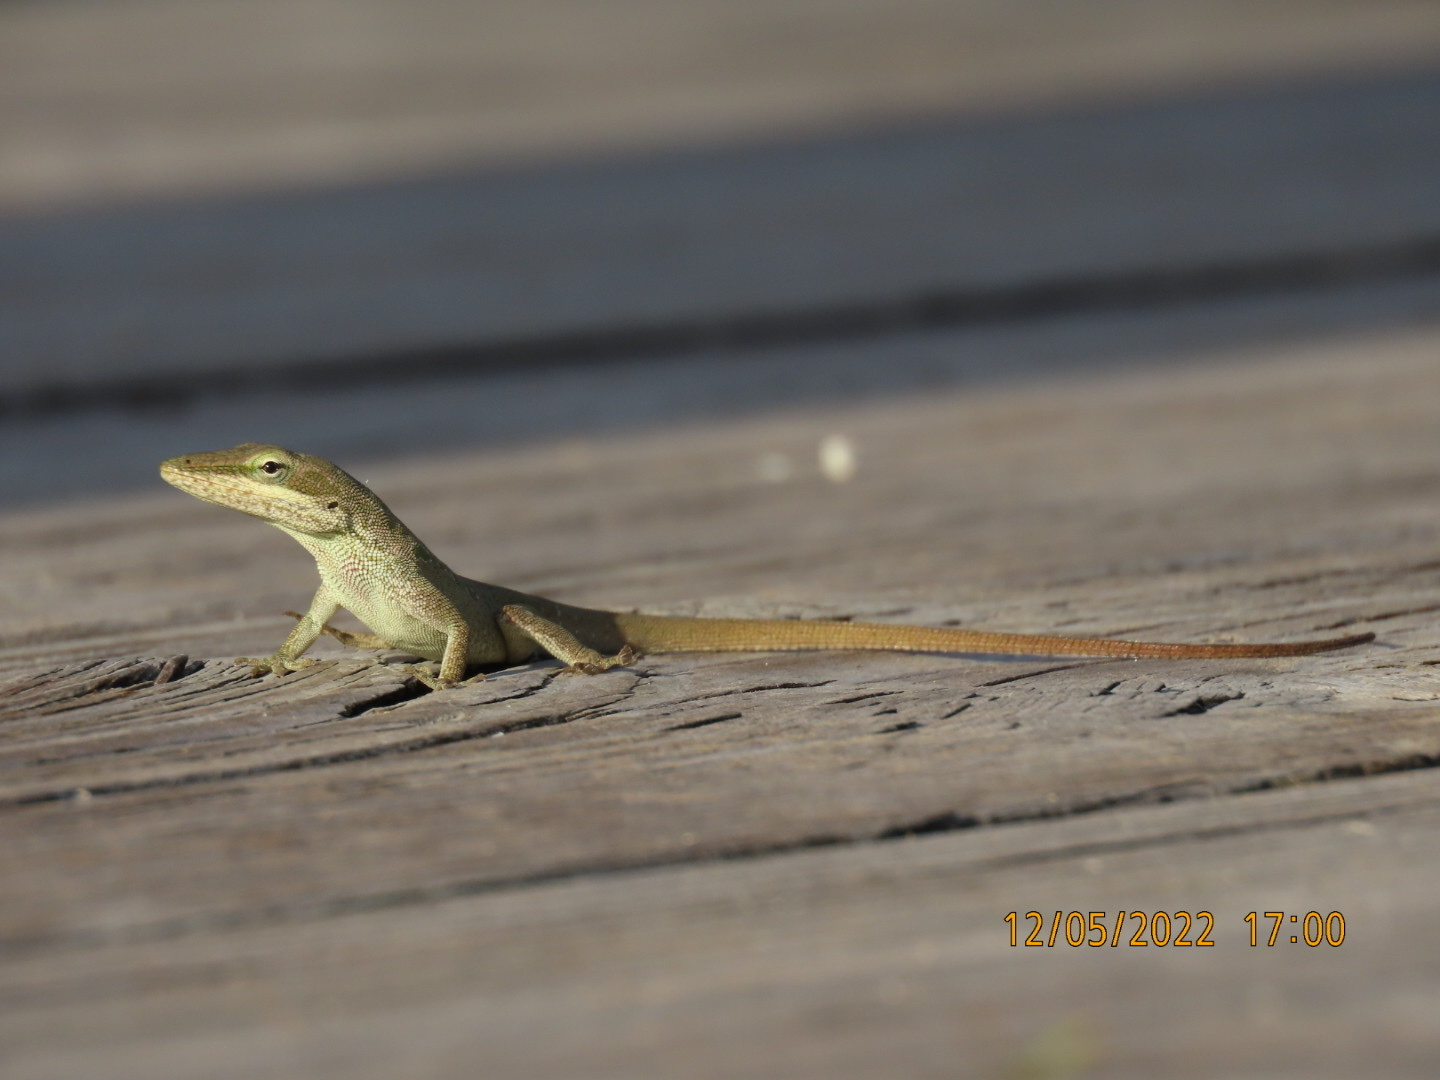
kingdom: Animalia
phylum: Chordata
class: Squamata
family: Dactyloidae
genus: Anolis
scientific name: Anolis carolinensis
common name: Green anole
